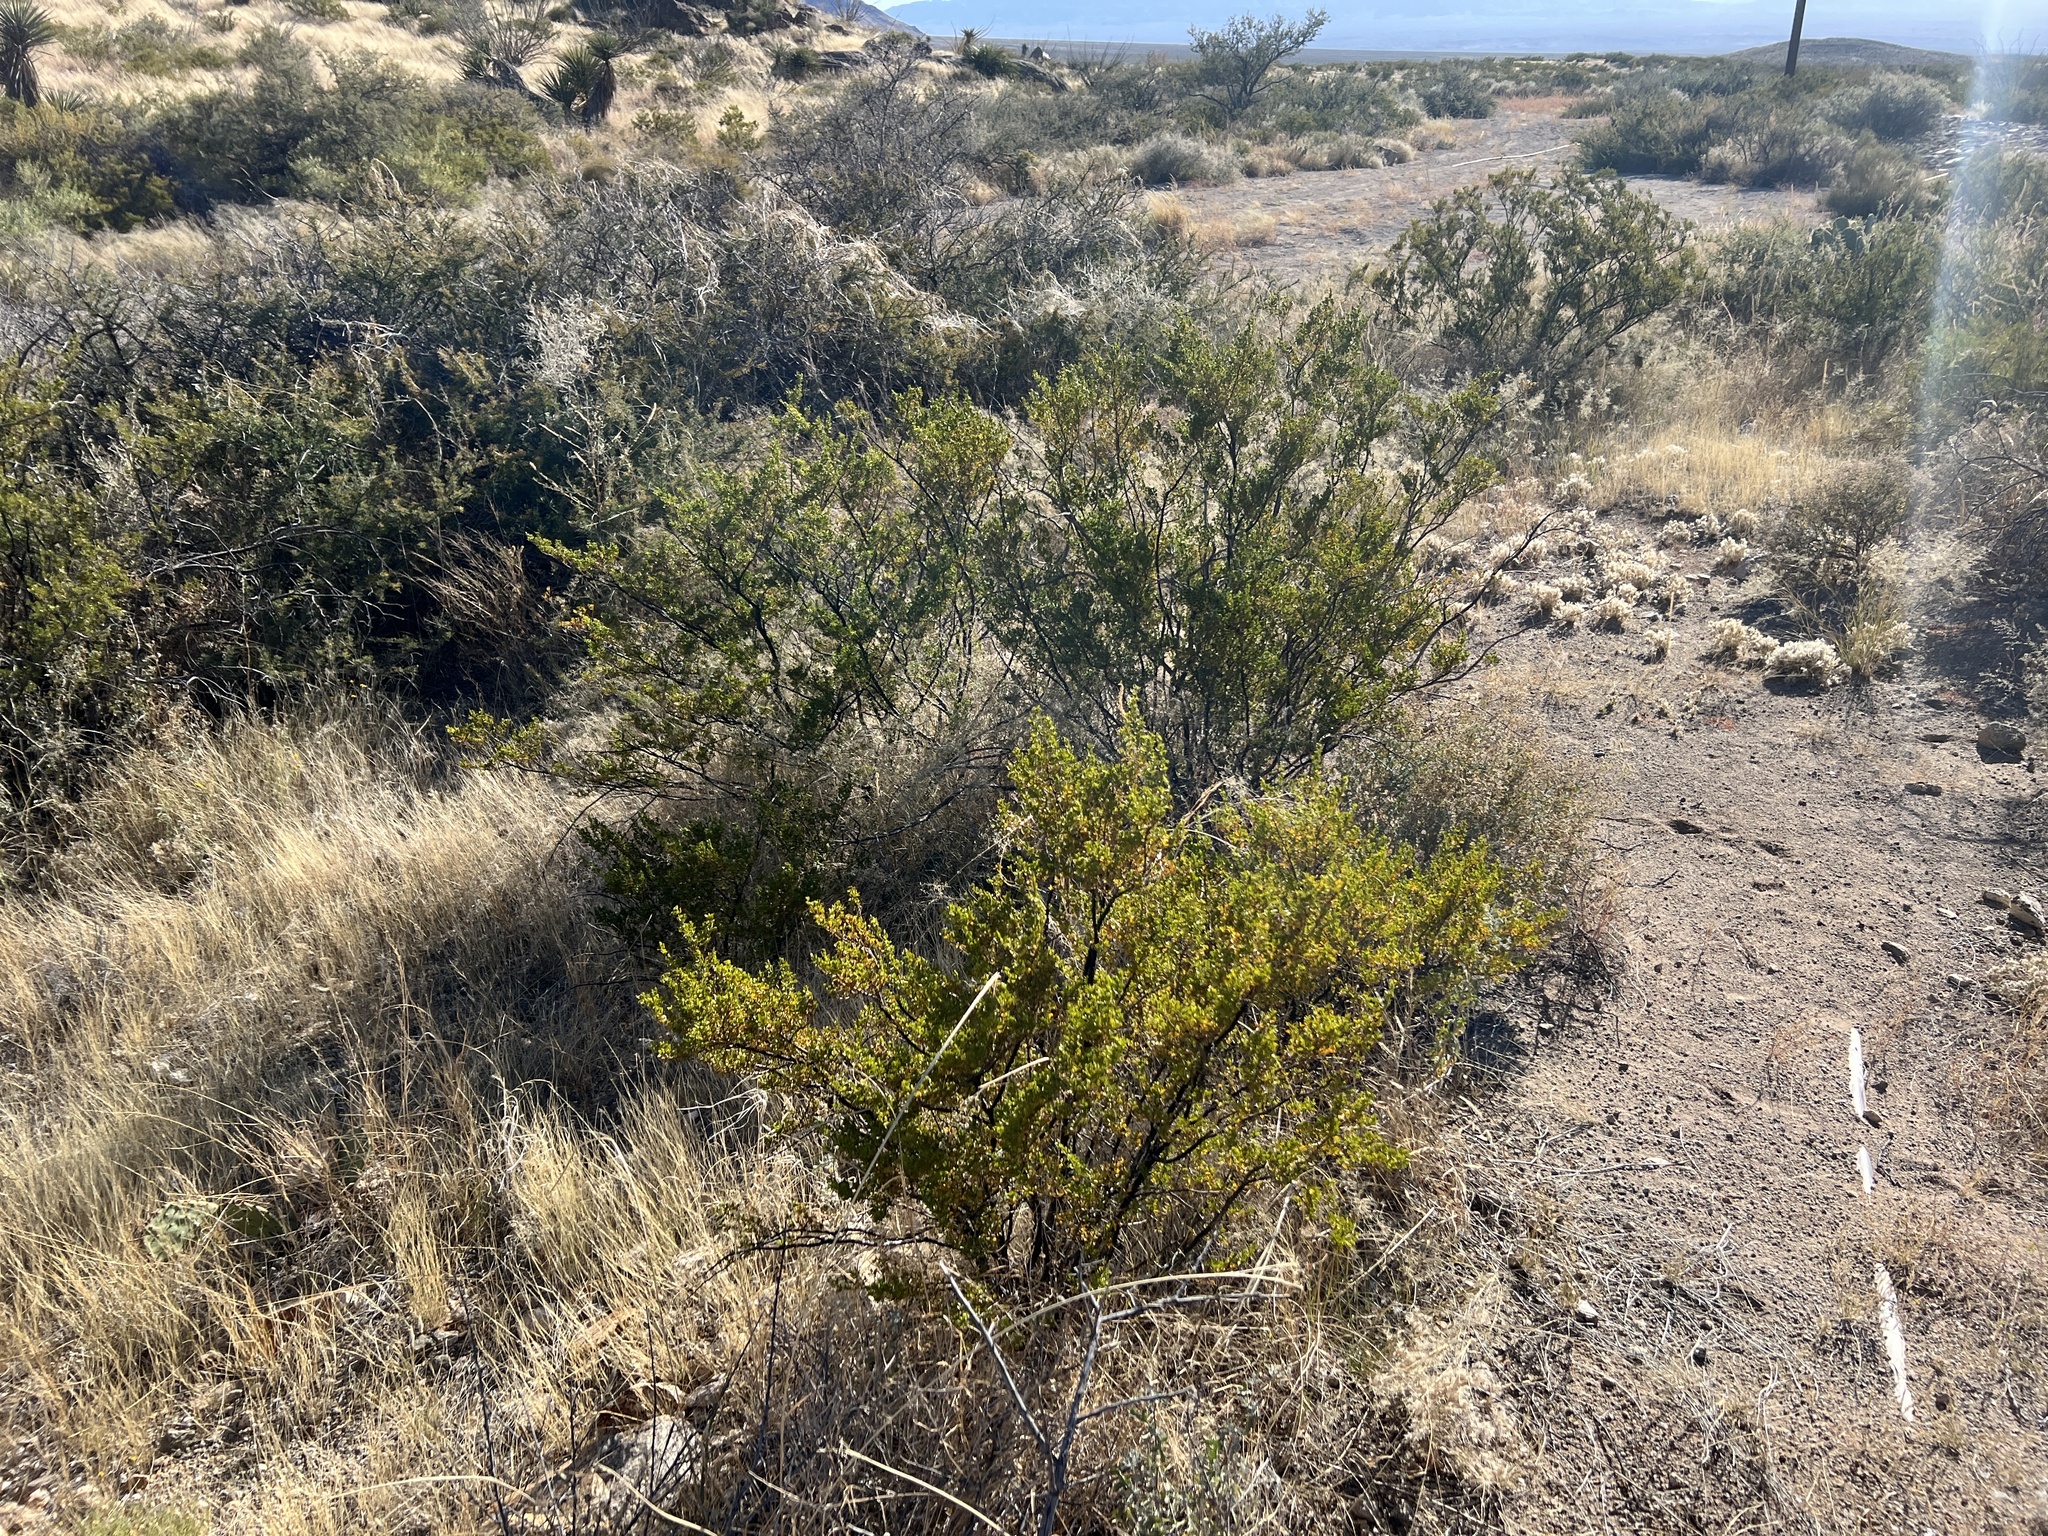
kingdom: Plantae
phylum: Tracheophyta
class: Magnoliopsida
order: Zygophyllales
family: Zygophyllaceae
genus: Larrea
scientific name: Larrea tridentata
